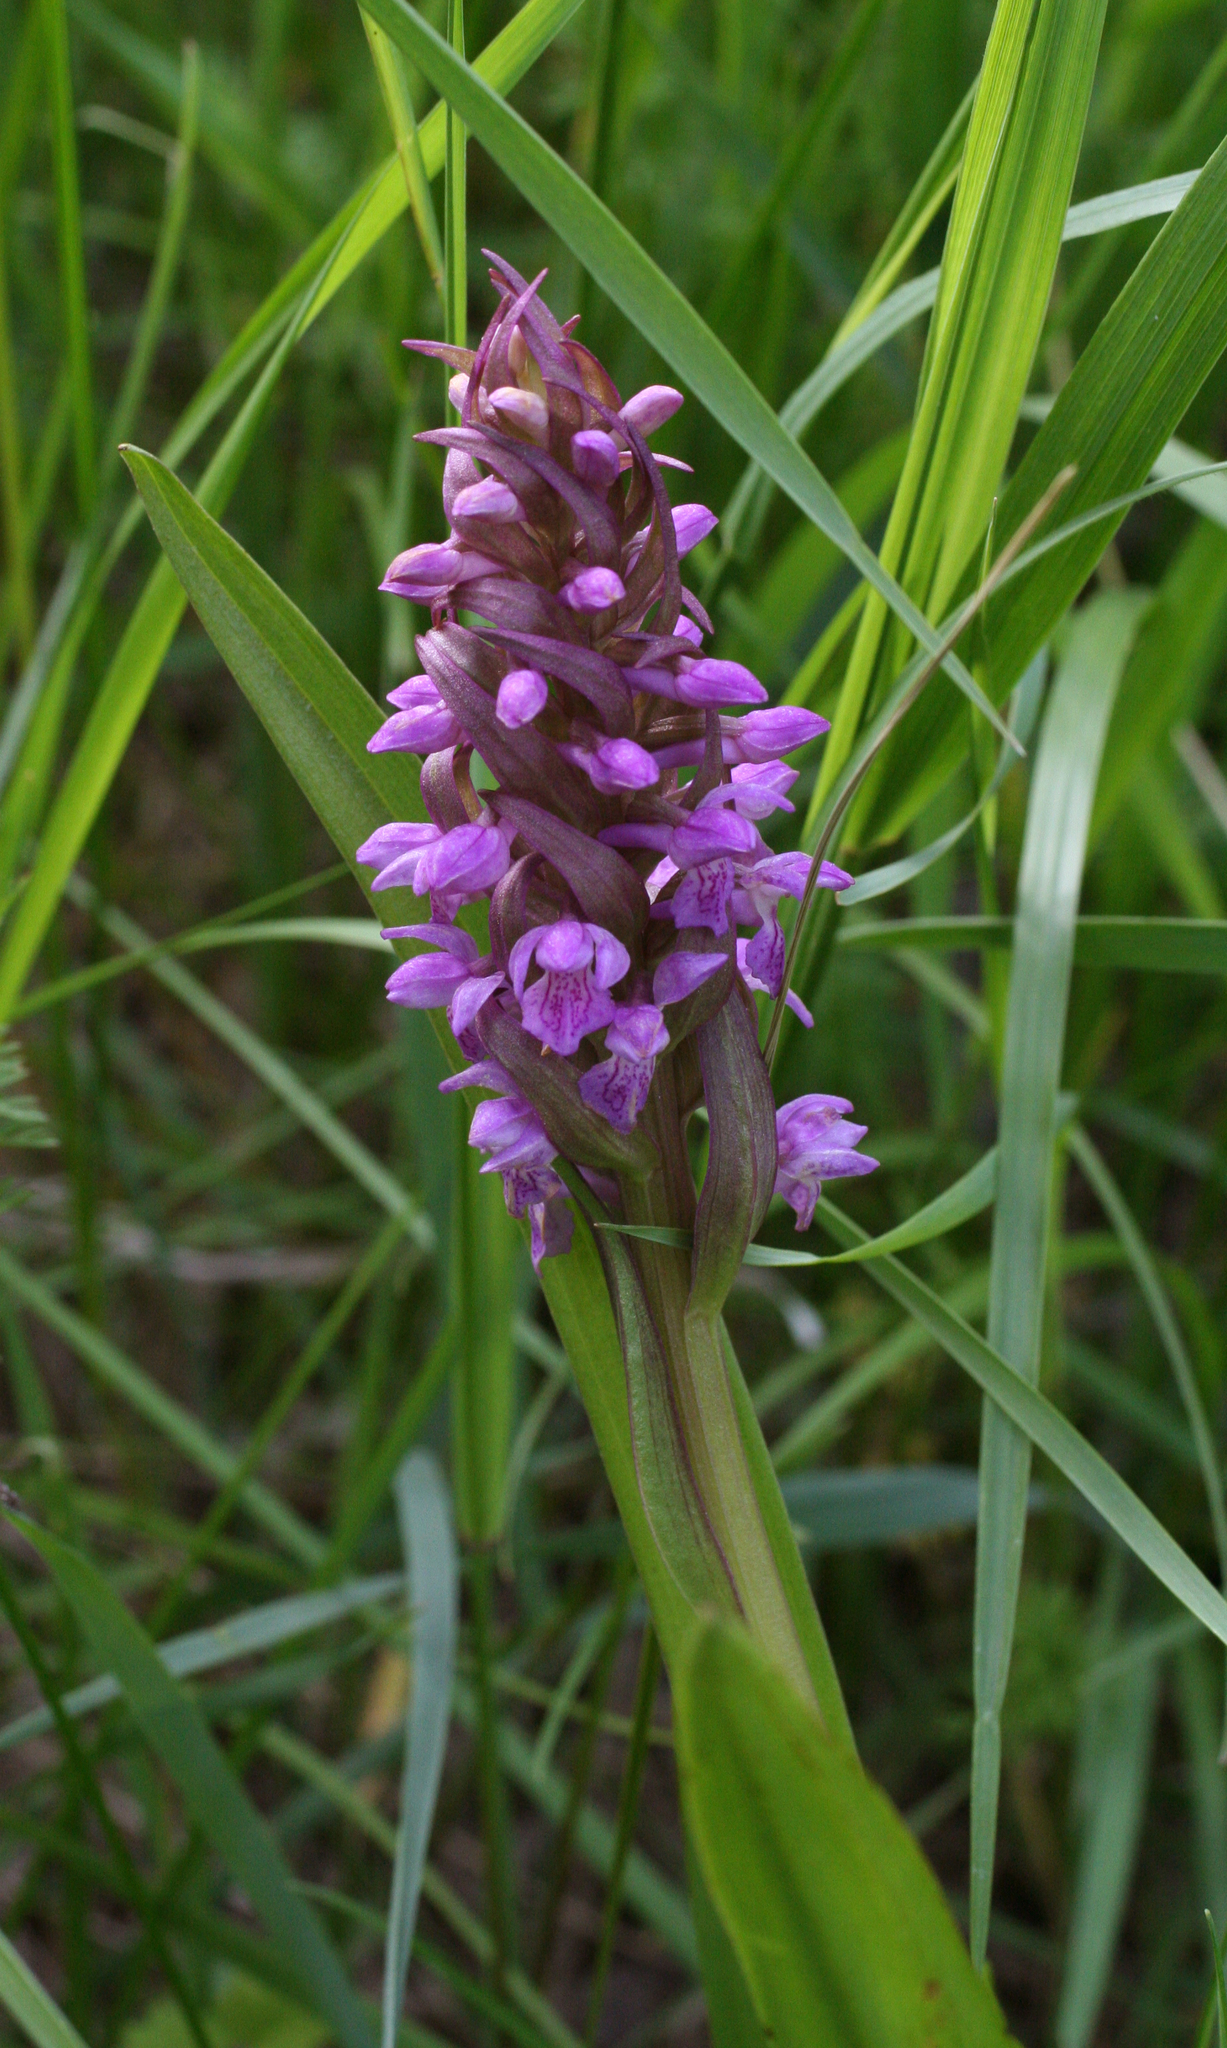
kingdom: Plantae
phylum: Tracheophyta
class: Liliopsida
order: Asparagales
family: Orchidaceae
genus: Dactylorhiza
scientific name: Dactylorhiza incarnata
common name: Early marsh-orchid
